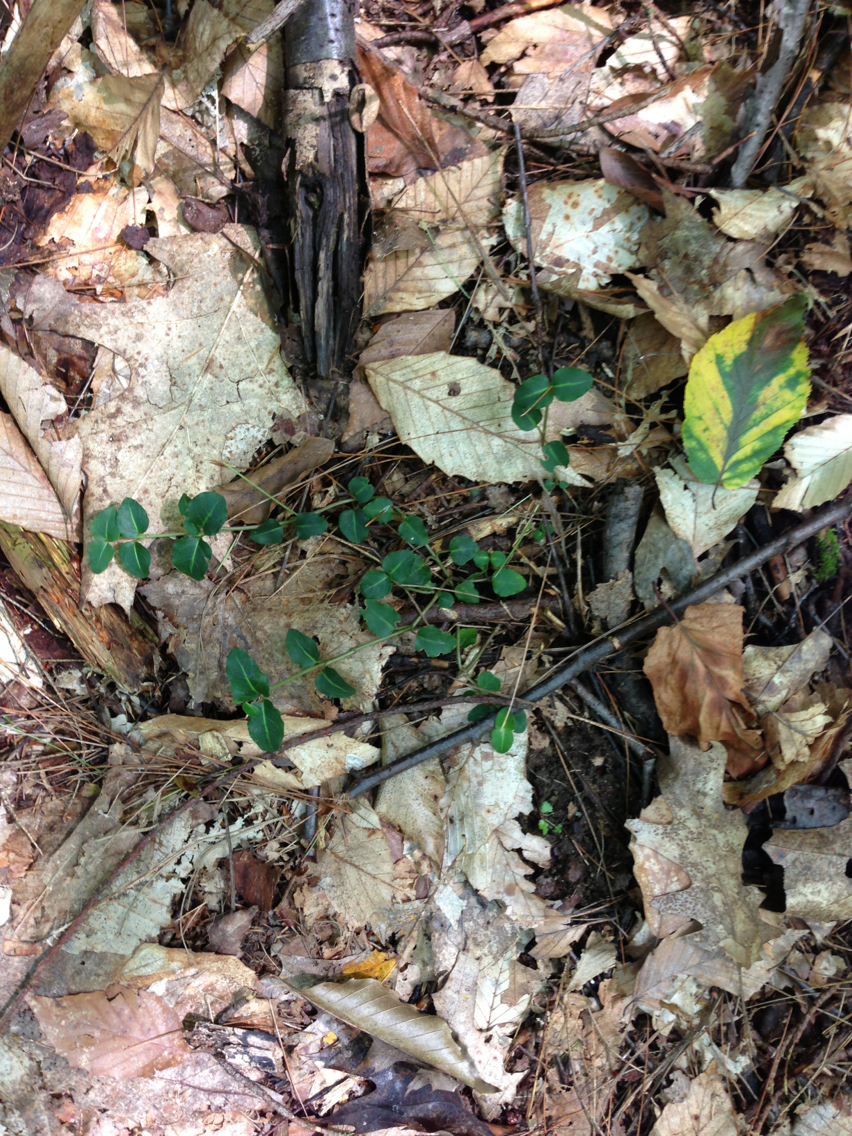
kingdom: Plantae
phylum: Tracheophyta
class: Magnoliopsida
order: Gentianales
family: Rubiaceae
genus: Mitchella
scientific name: Mitchella repens
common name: Partridge-berry
